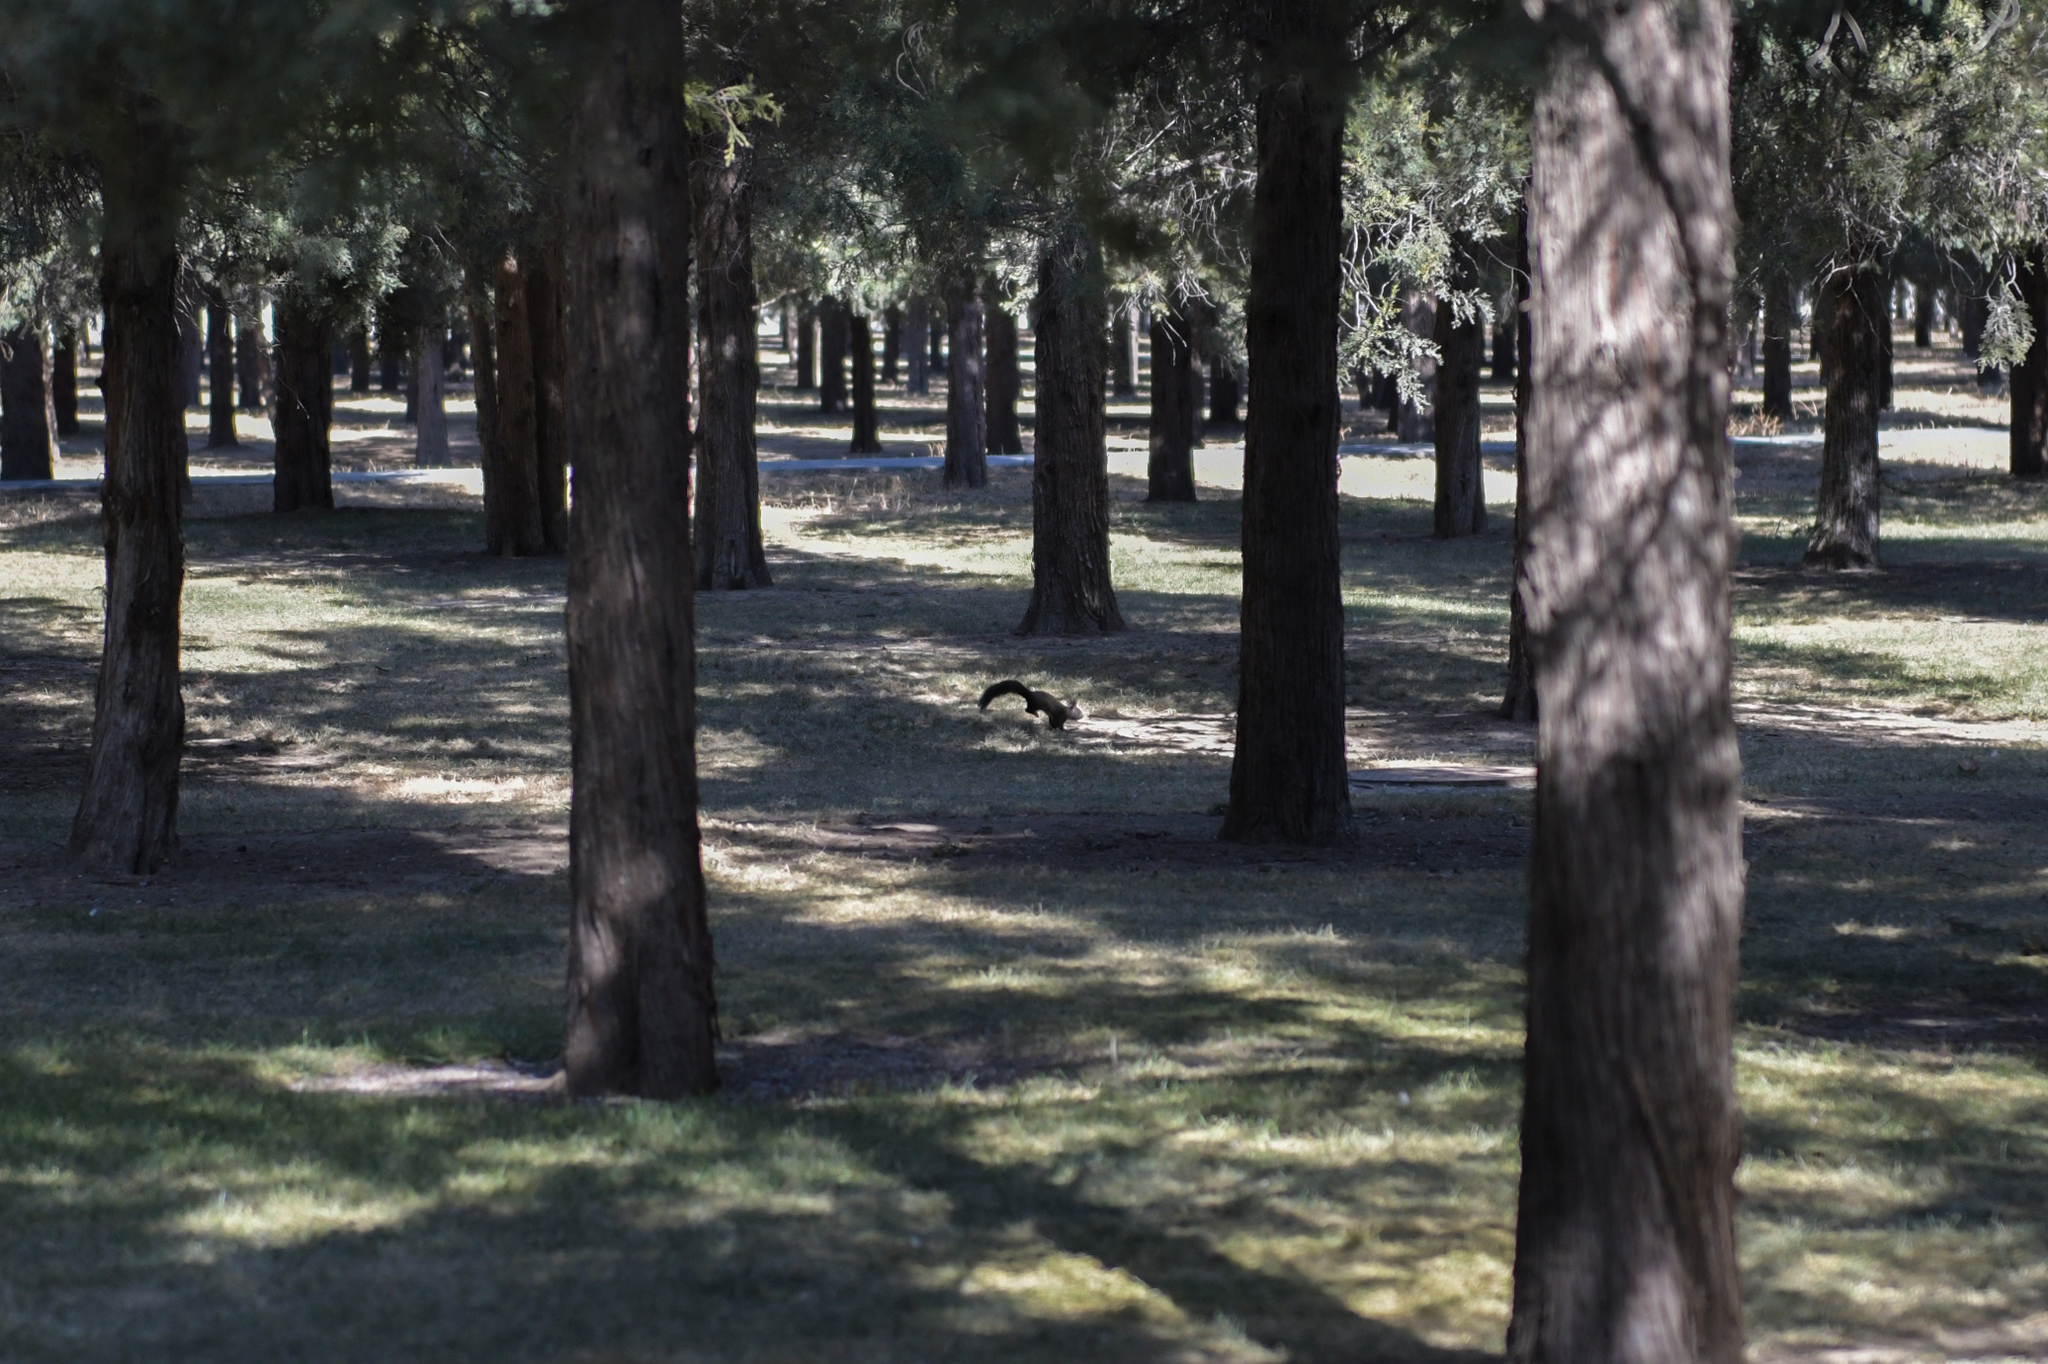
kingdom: Animalia
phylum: Chordata
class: Mammalia
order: Rodentia
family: Sciuridae
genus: Sciurus
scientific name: Sciurus vulgaris
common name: Eurasian red squirrel
